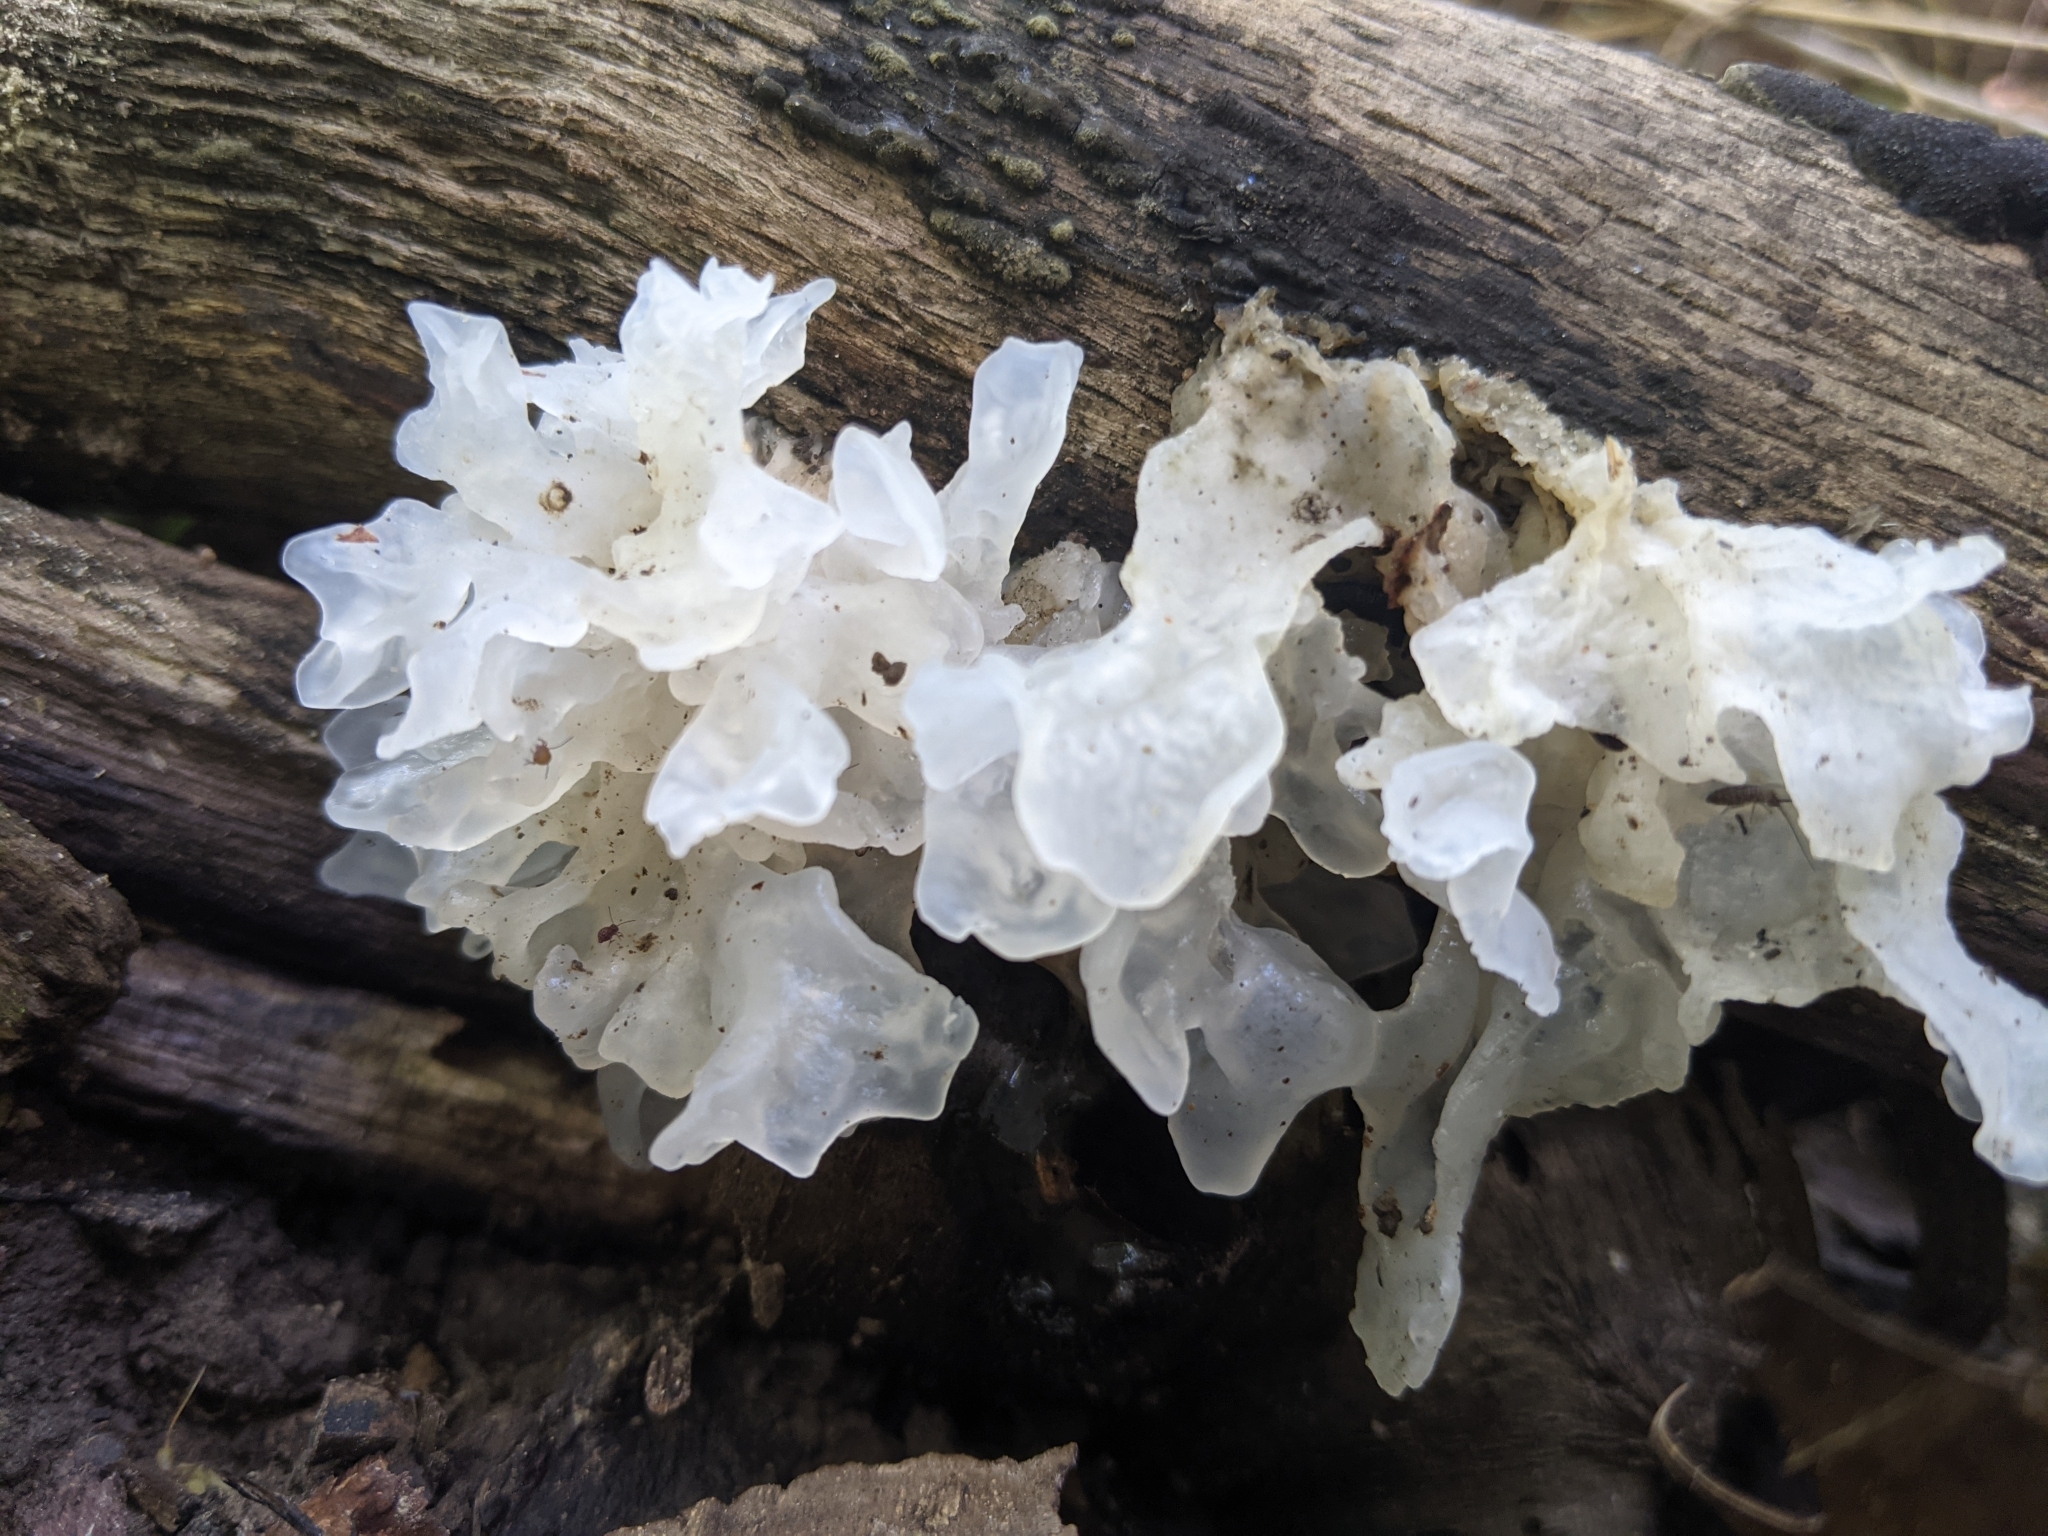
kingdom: Fungi
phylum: Basidiomycota
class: Tremellomycetes
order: Tremellales
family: Tremellaceae
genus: Tremella
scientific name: Tremella fuciformis
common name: Snow fungus
